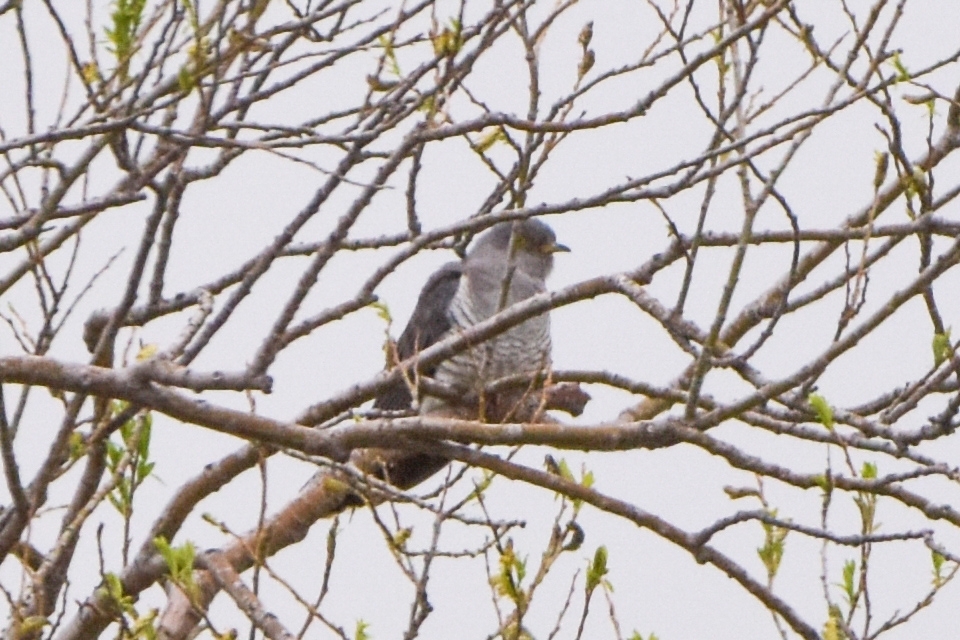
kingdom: Animalia
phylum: Chordata
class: Aves
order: Cuculiformes
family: Cuculidae
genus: Cuculus
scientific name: Cuculus canorus
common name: Common cuckoo
